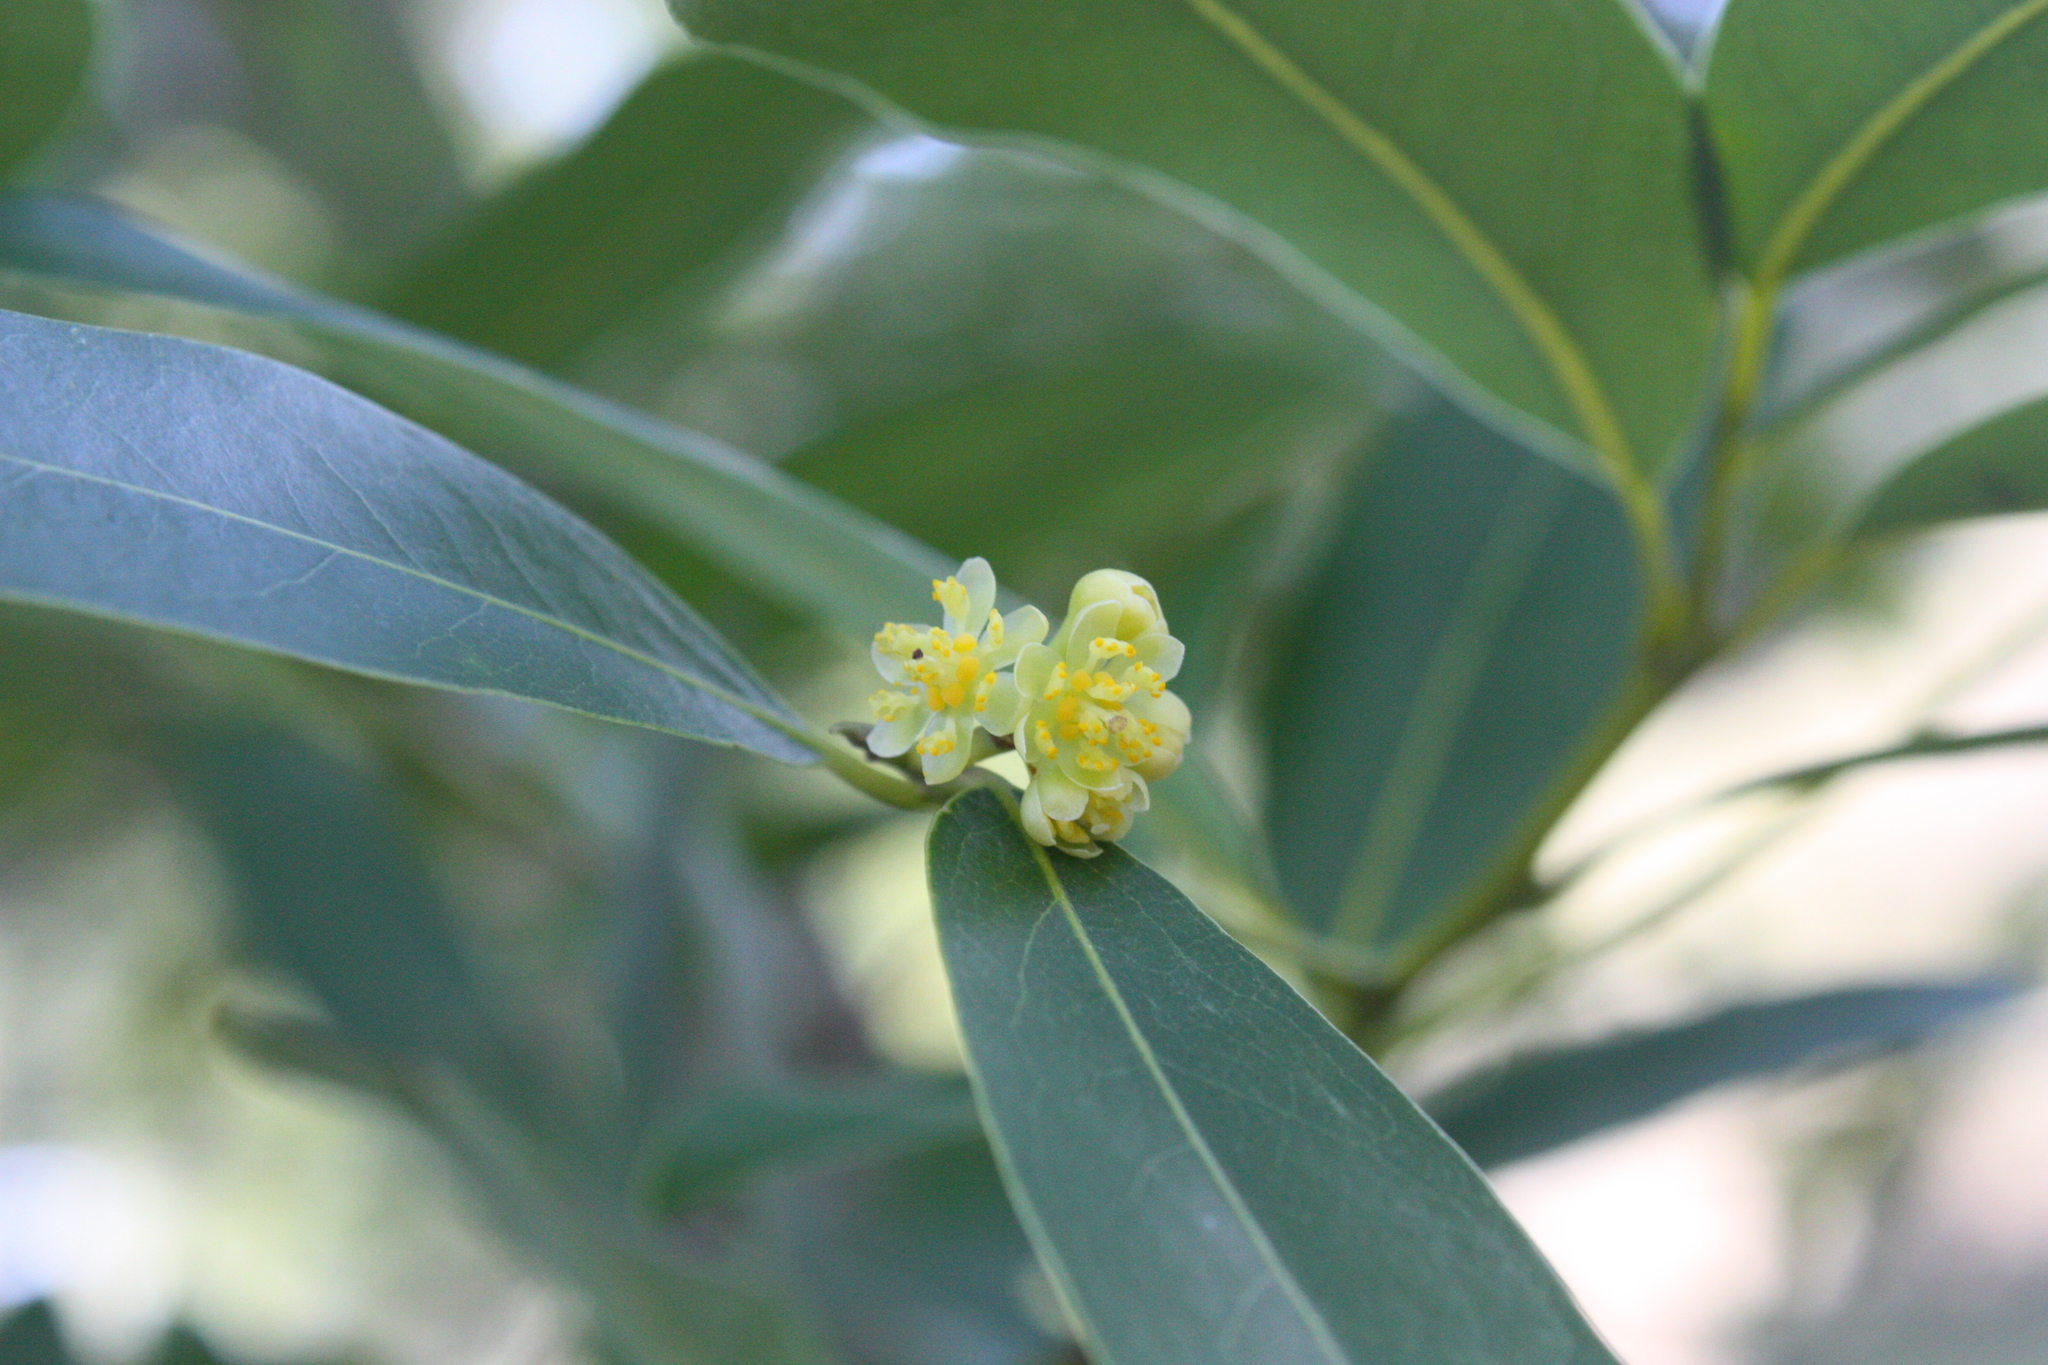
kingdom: Plantae
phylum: Tracheophyta
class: Magnoliopsida
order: Laurales
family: Lauraceae
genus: Umbellularia
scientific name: Umbellularia californica
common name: California bay
